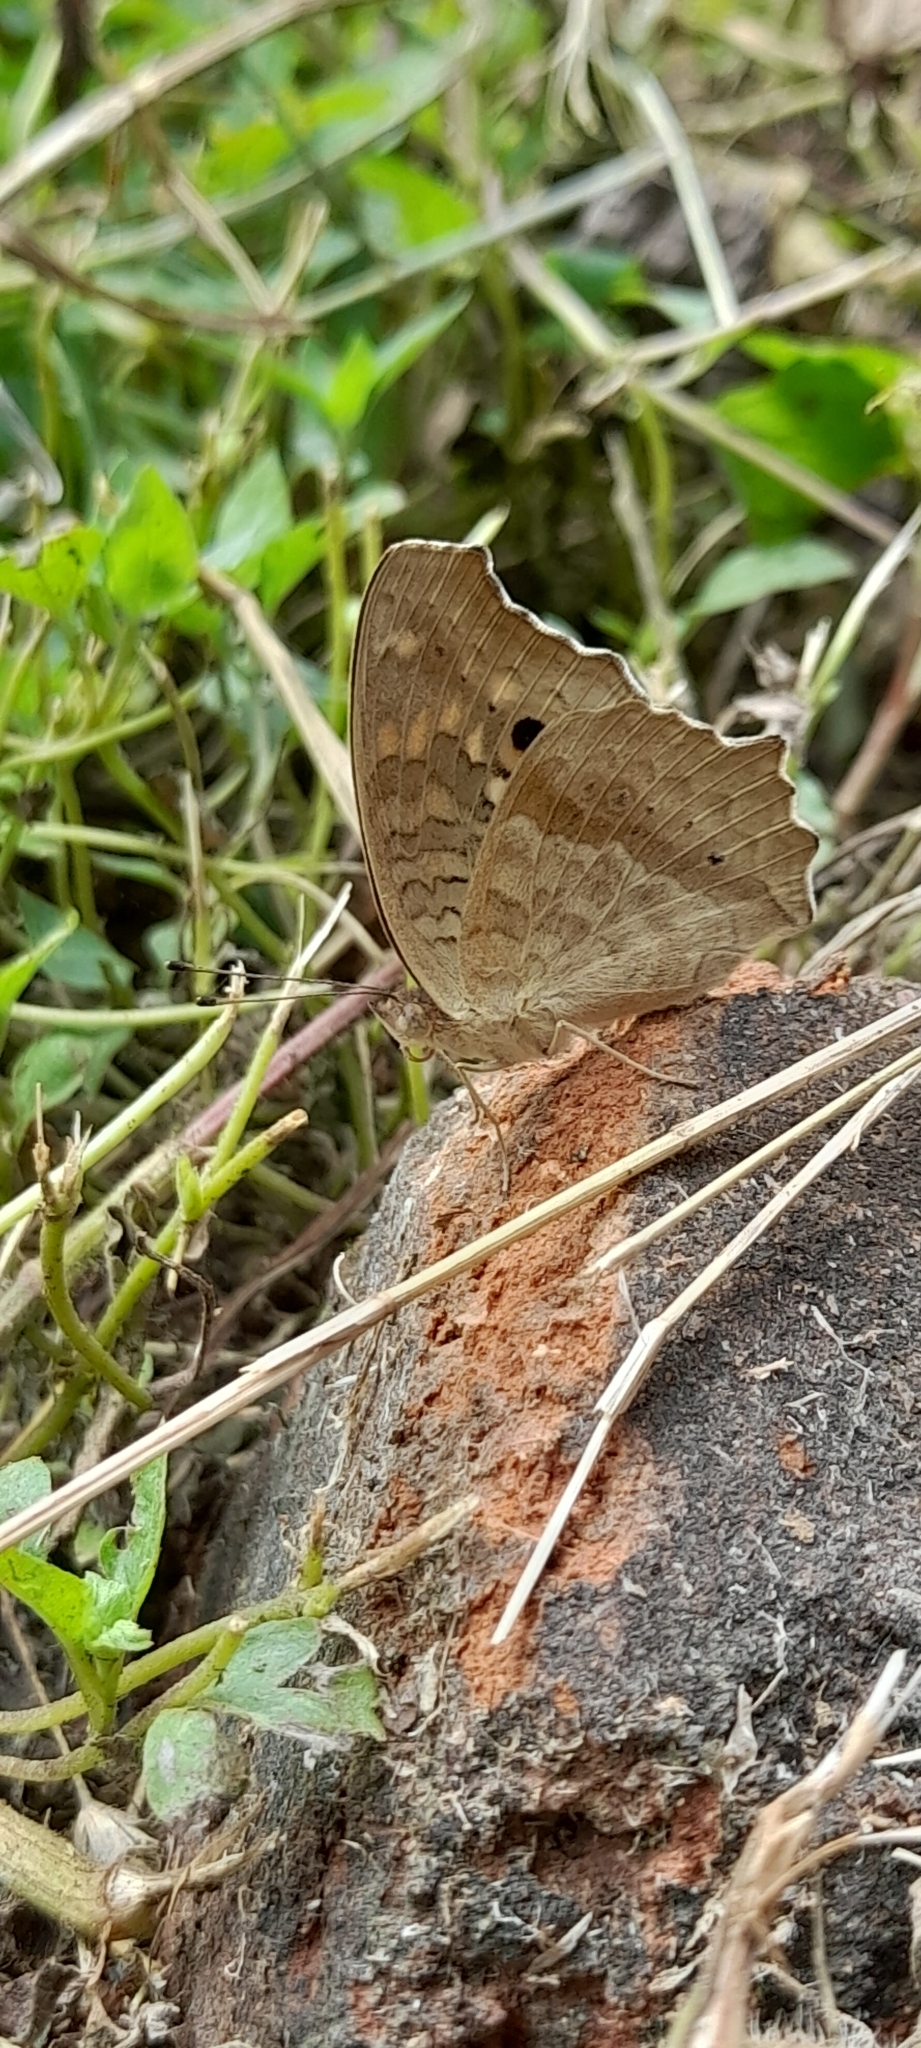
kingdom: Animalia
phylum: Arthropoda
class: Insecta
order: Lepidoptera
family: Nymphalidae
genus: Junonia
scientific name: Junonia lemonias
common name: Lemon pansy
